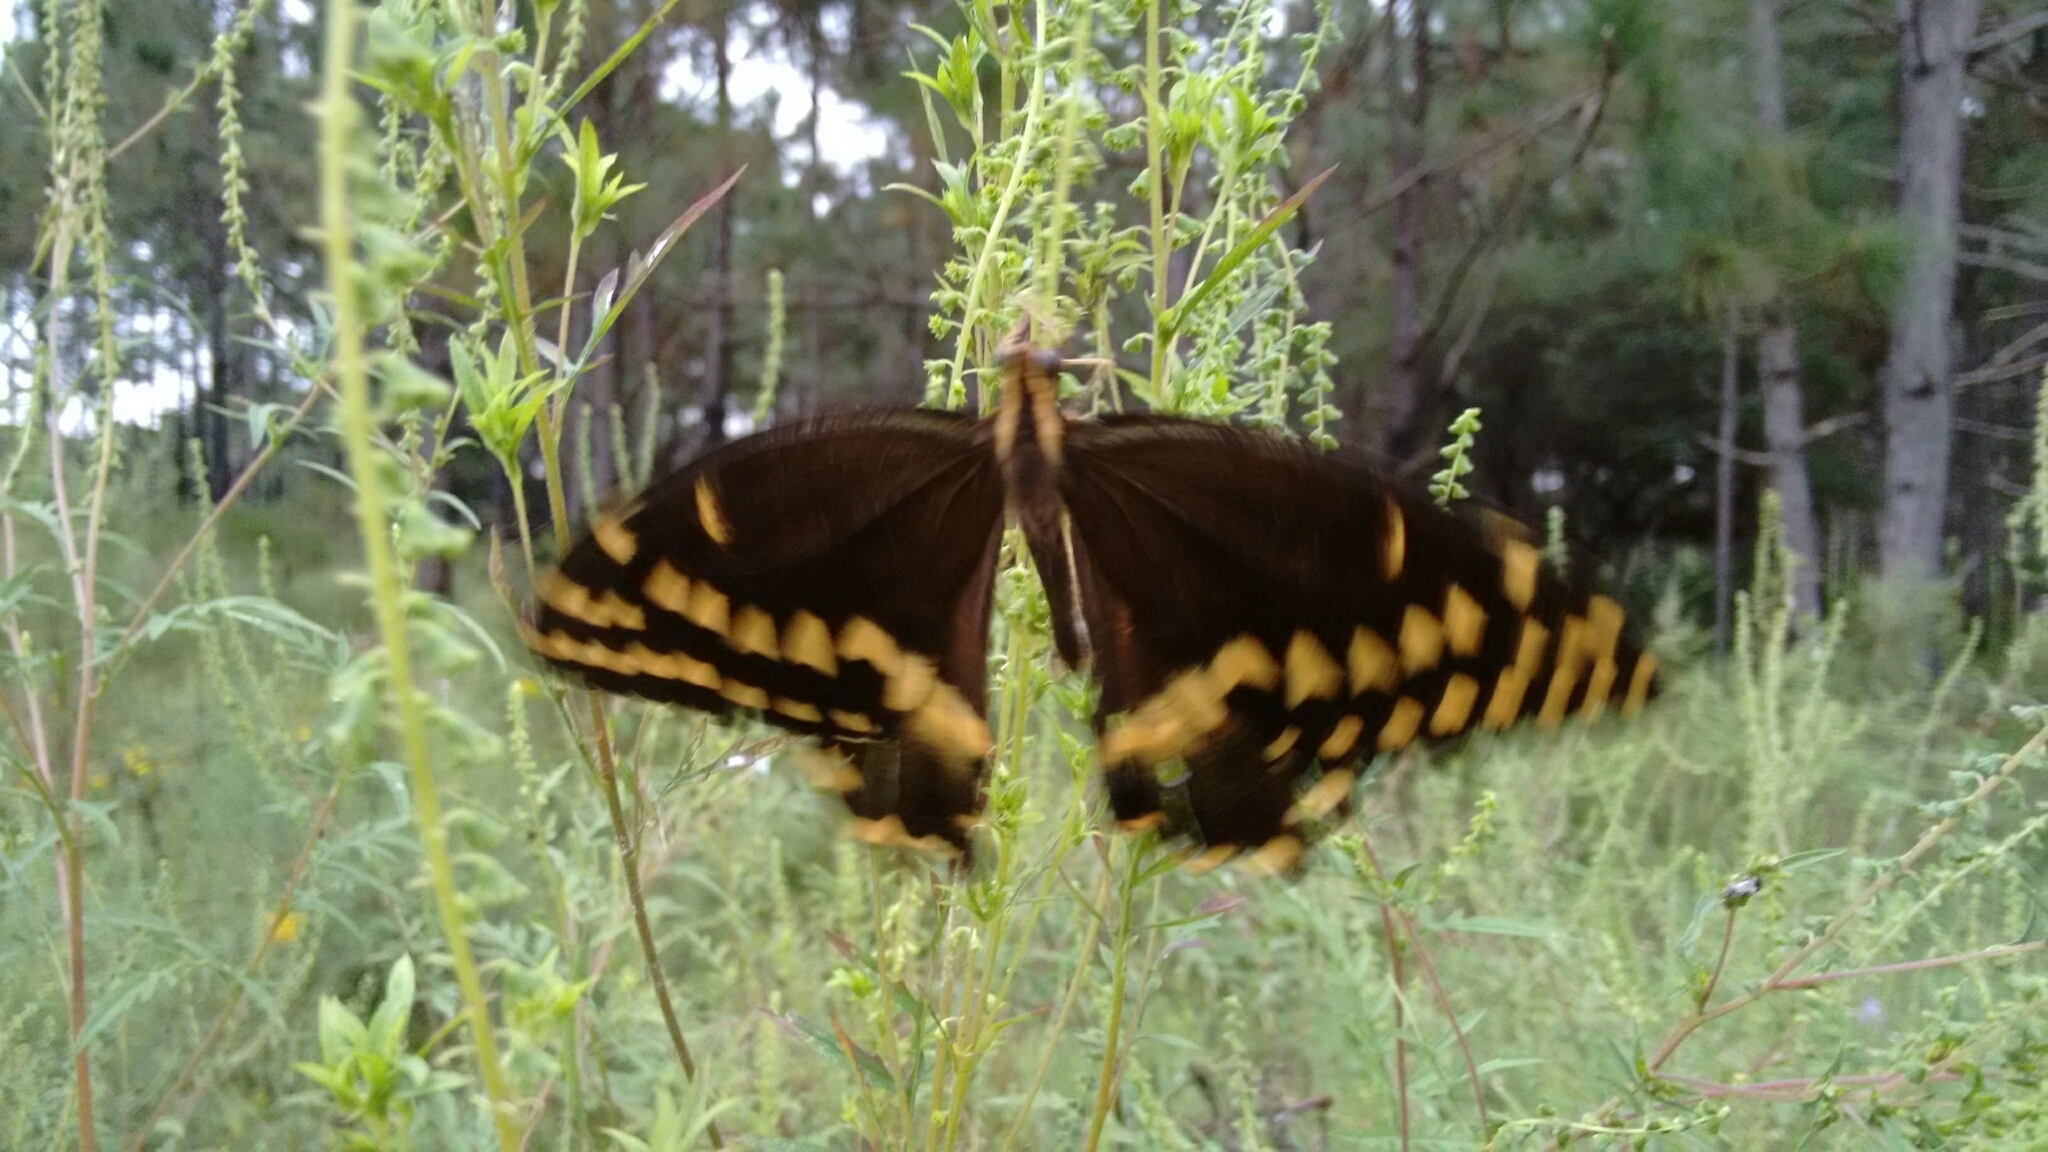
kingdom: Animalia
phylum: Arthropoda
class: Insecta
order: Lepidoptera
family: Papilionidae
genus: Papilio
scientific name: Papilio palamedes
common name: Palamedes swallowtail
